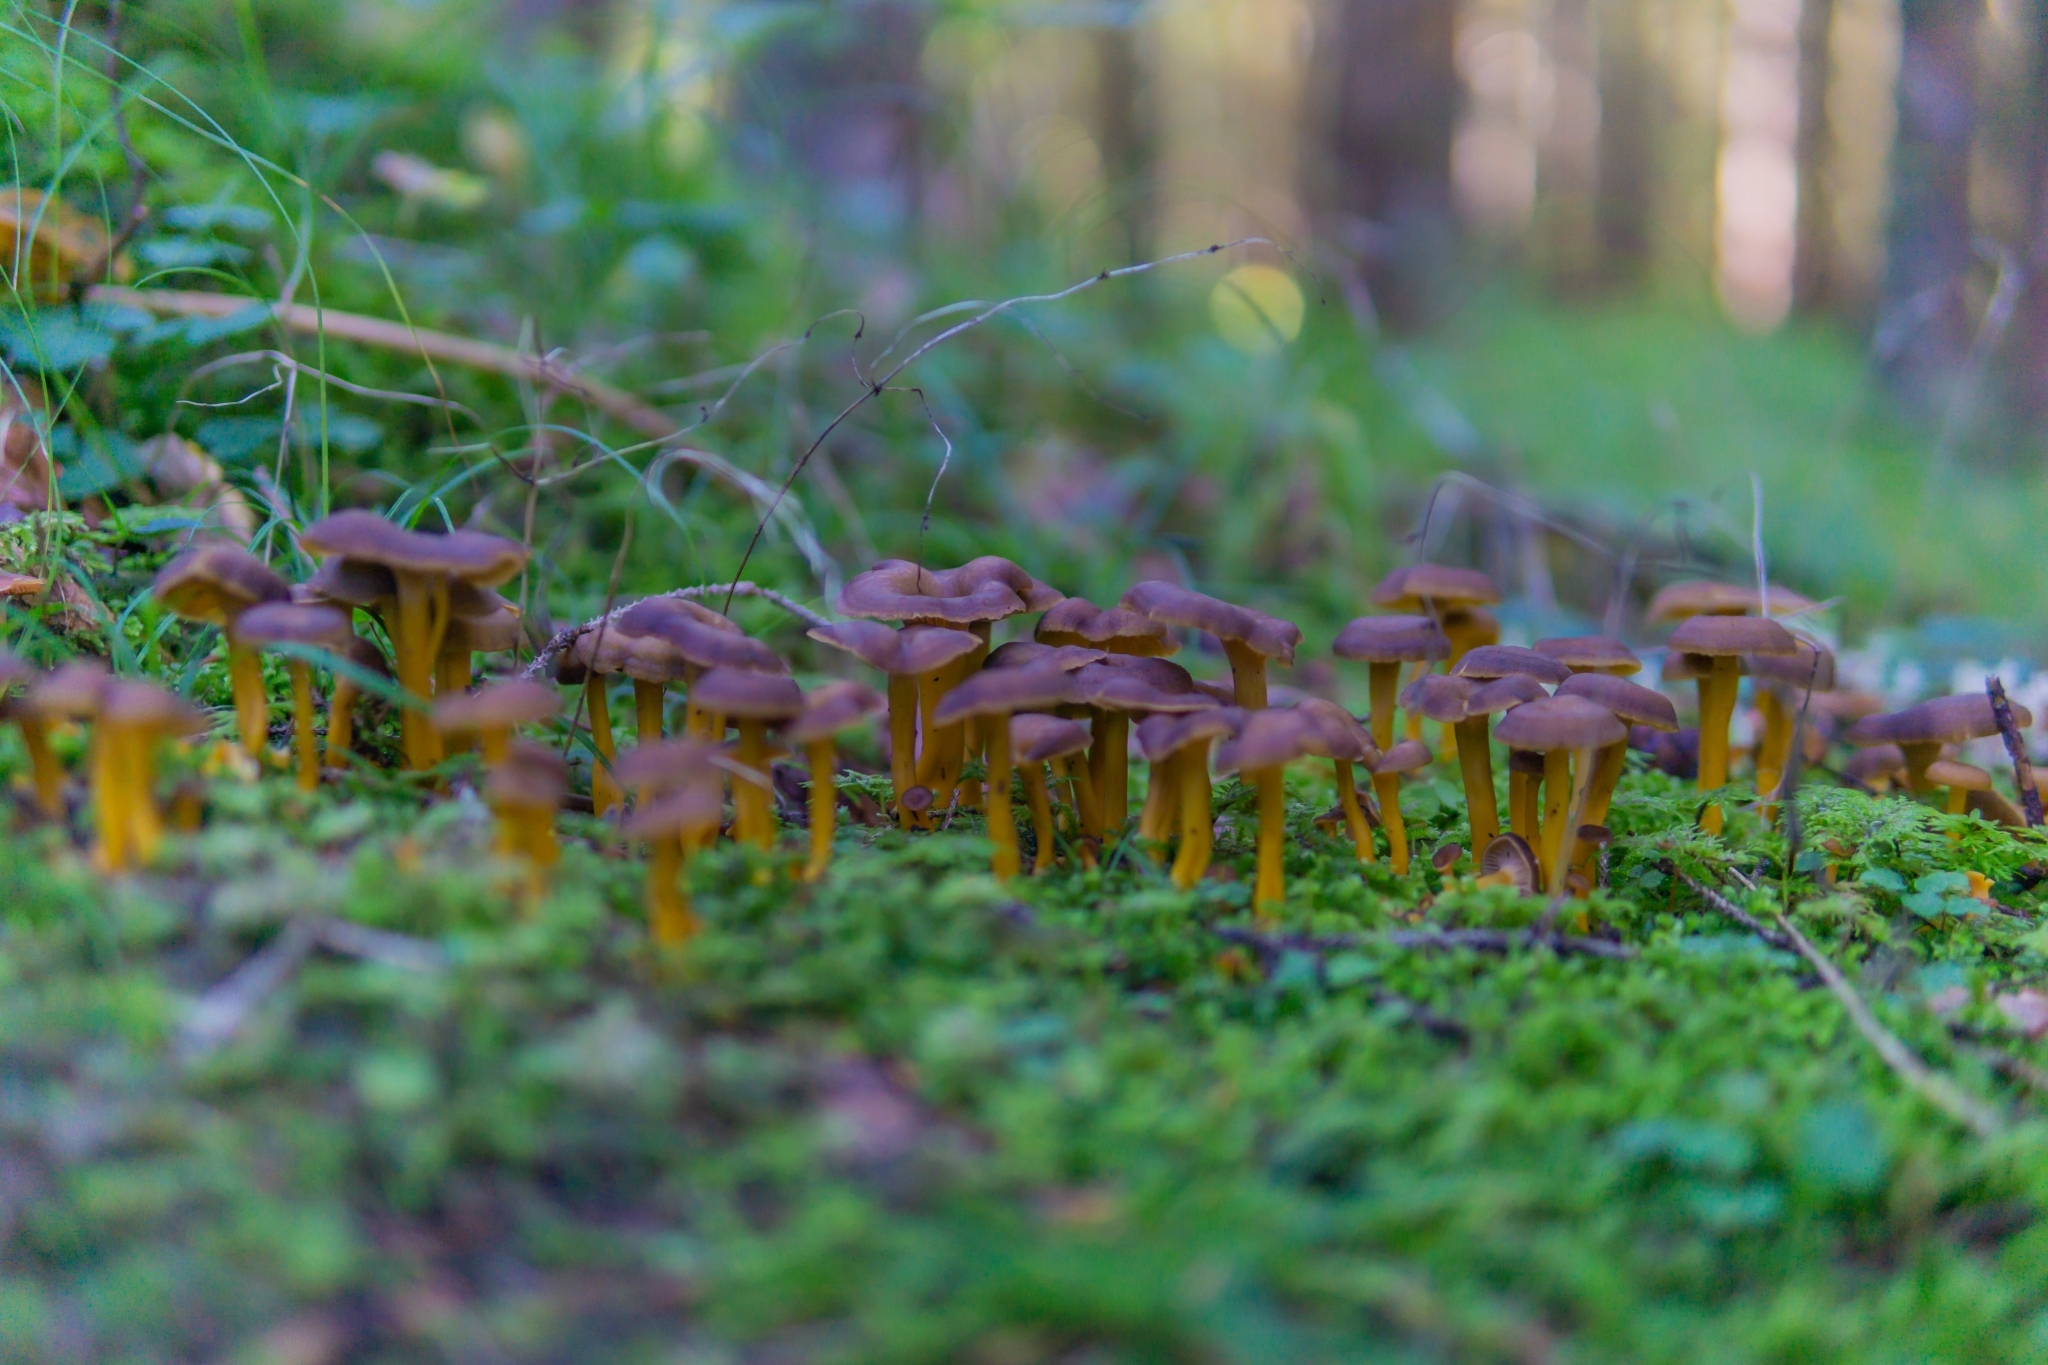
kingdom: Fungi
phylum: Basidiomycota
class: Agaricomycetes
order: Cantharellales
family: Hydnaceae
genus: Craterellus
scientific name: Craterellus tubaeformis
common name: Yellowfoot
